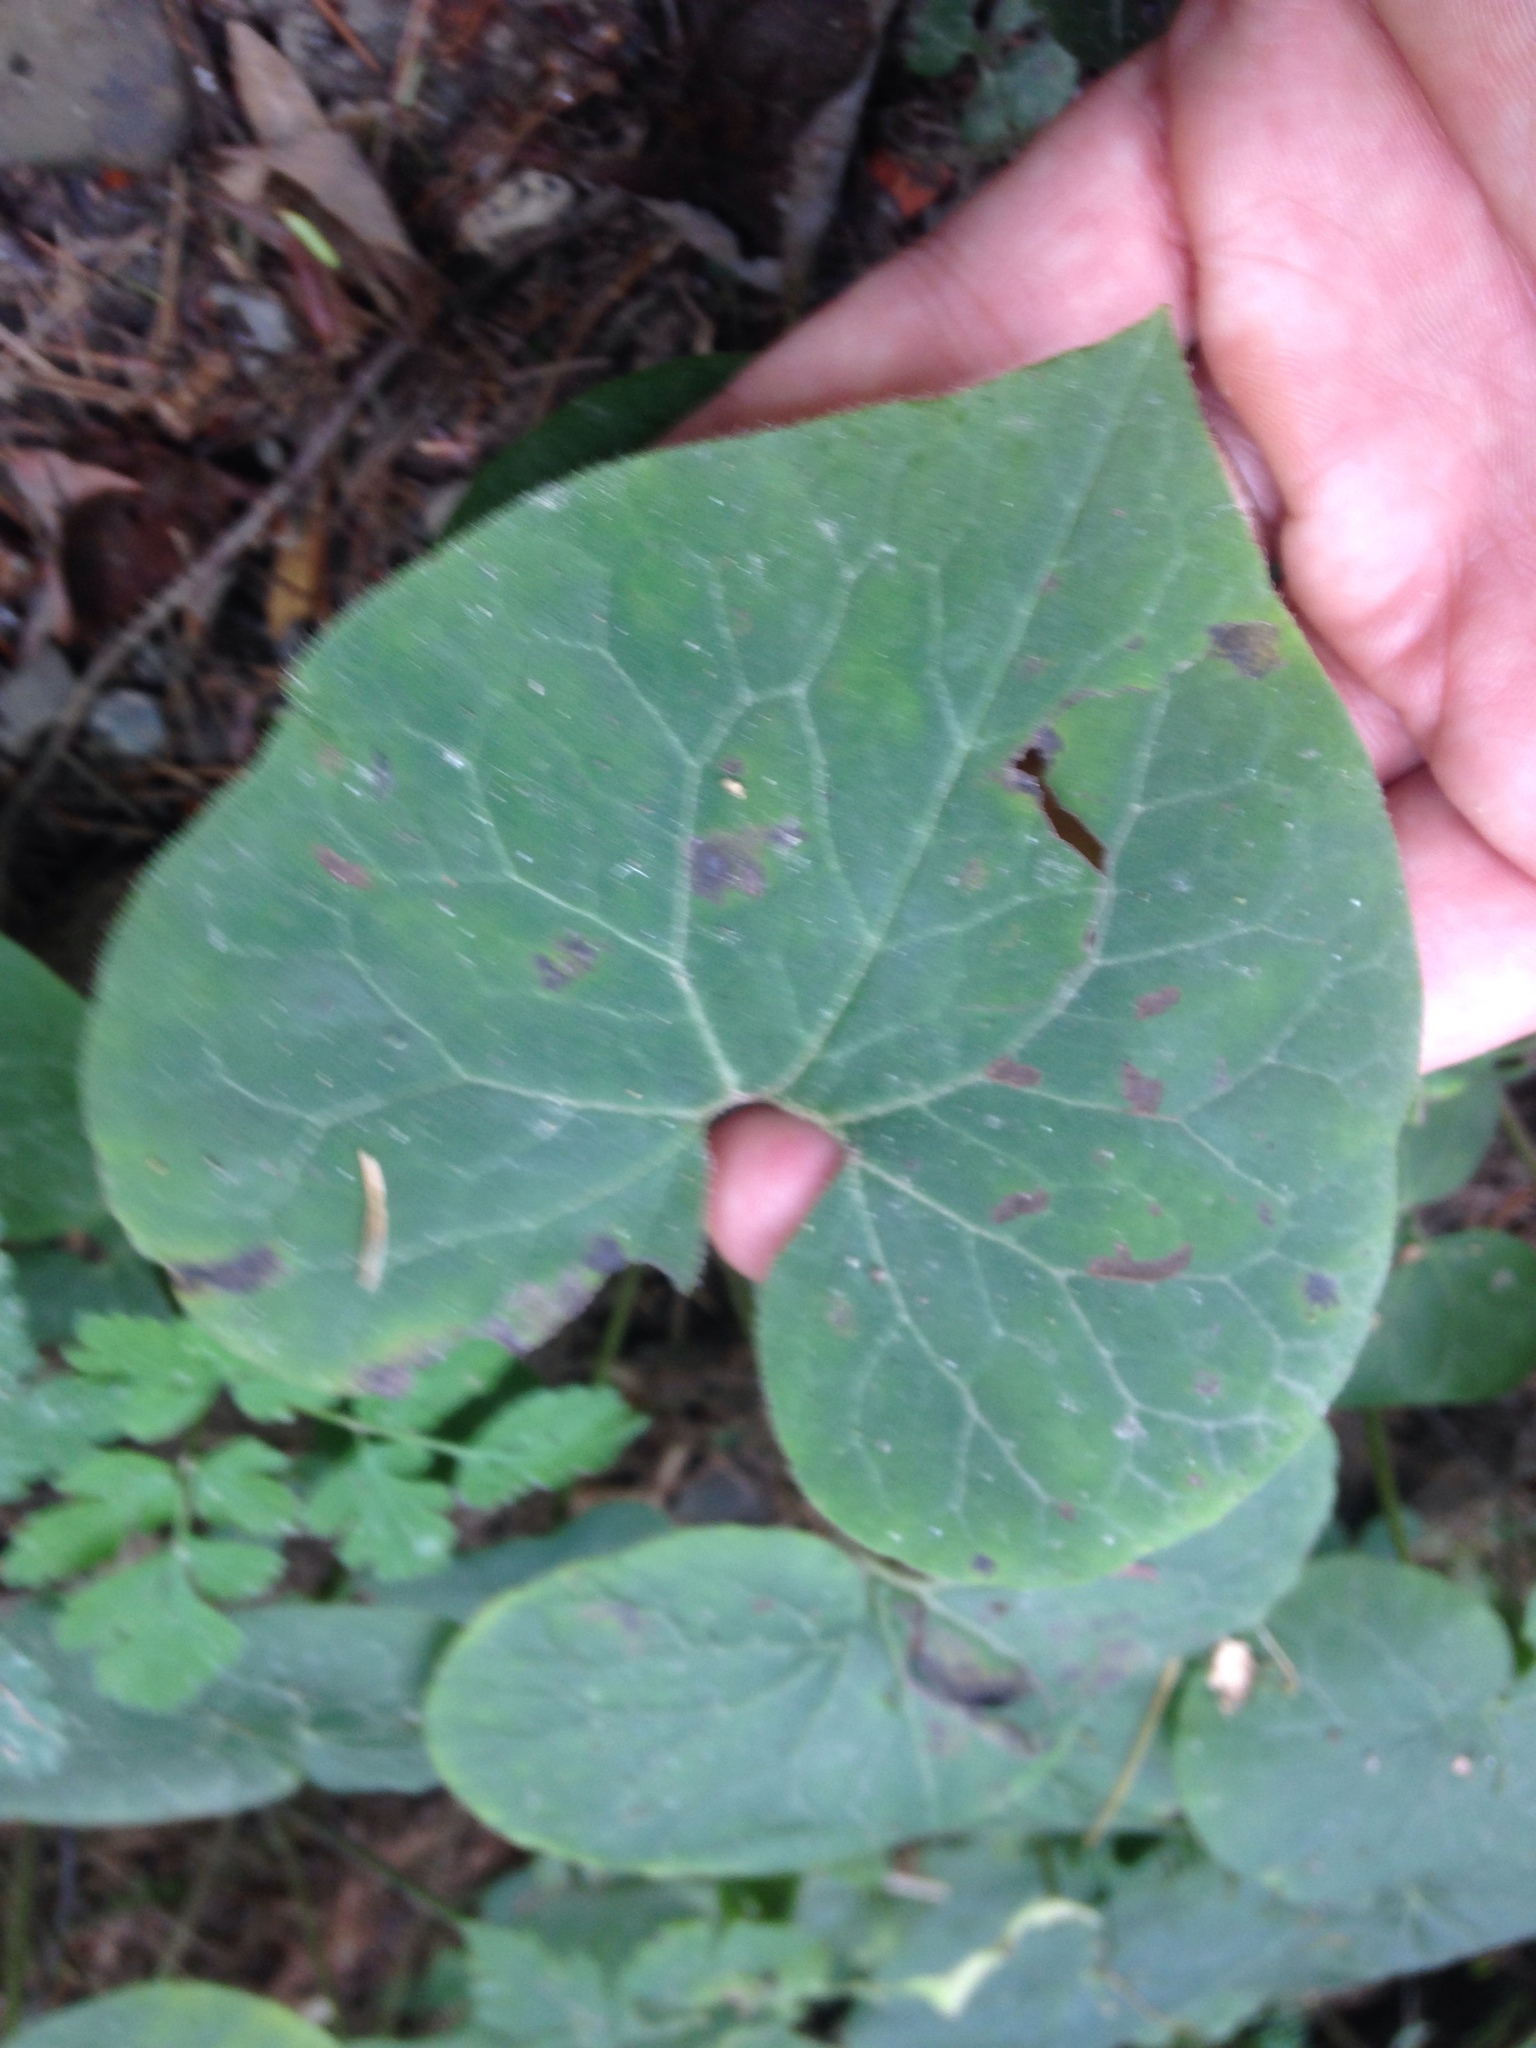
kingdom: Plantae
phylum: Tracheophyta
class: Magnoliopsida
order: Piperales
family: Aristolochiaceae
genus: Asarum
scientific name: Asarum canadense
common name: Wild ginger
